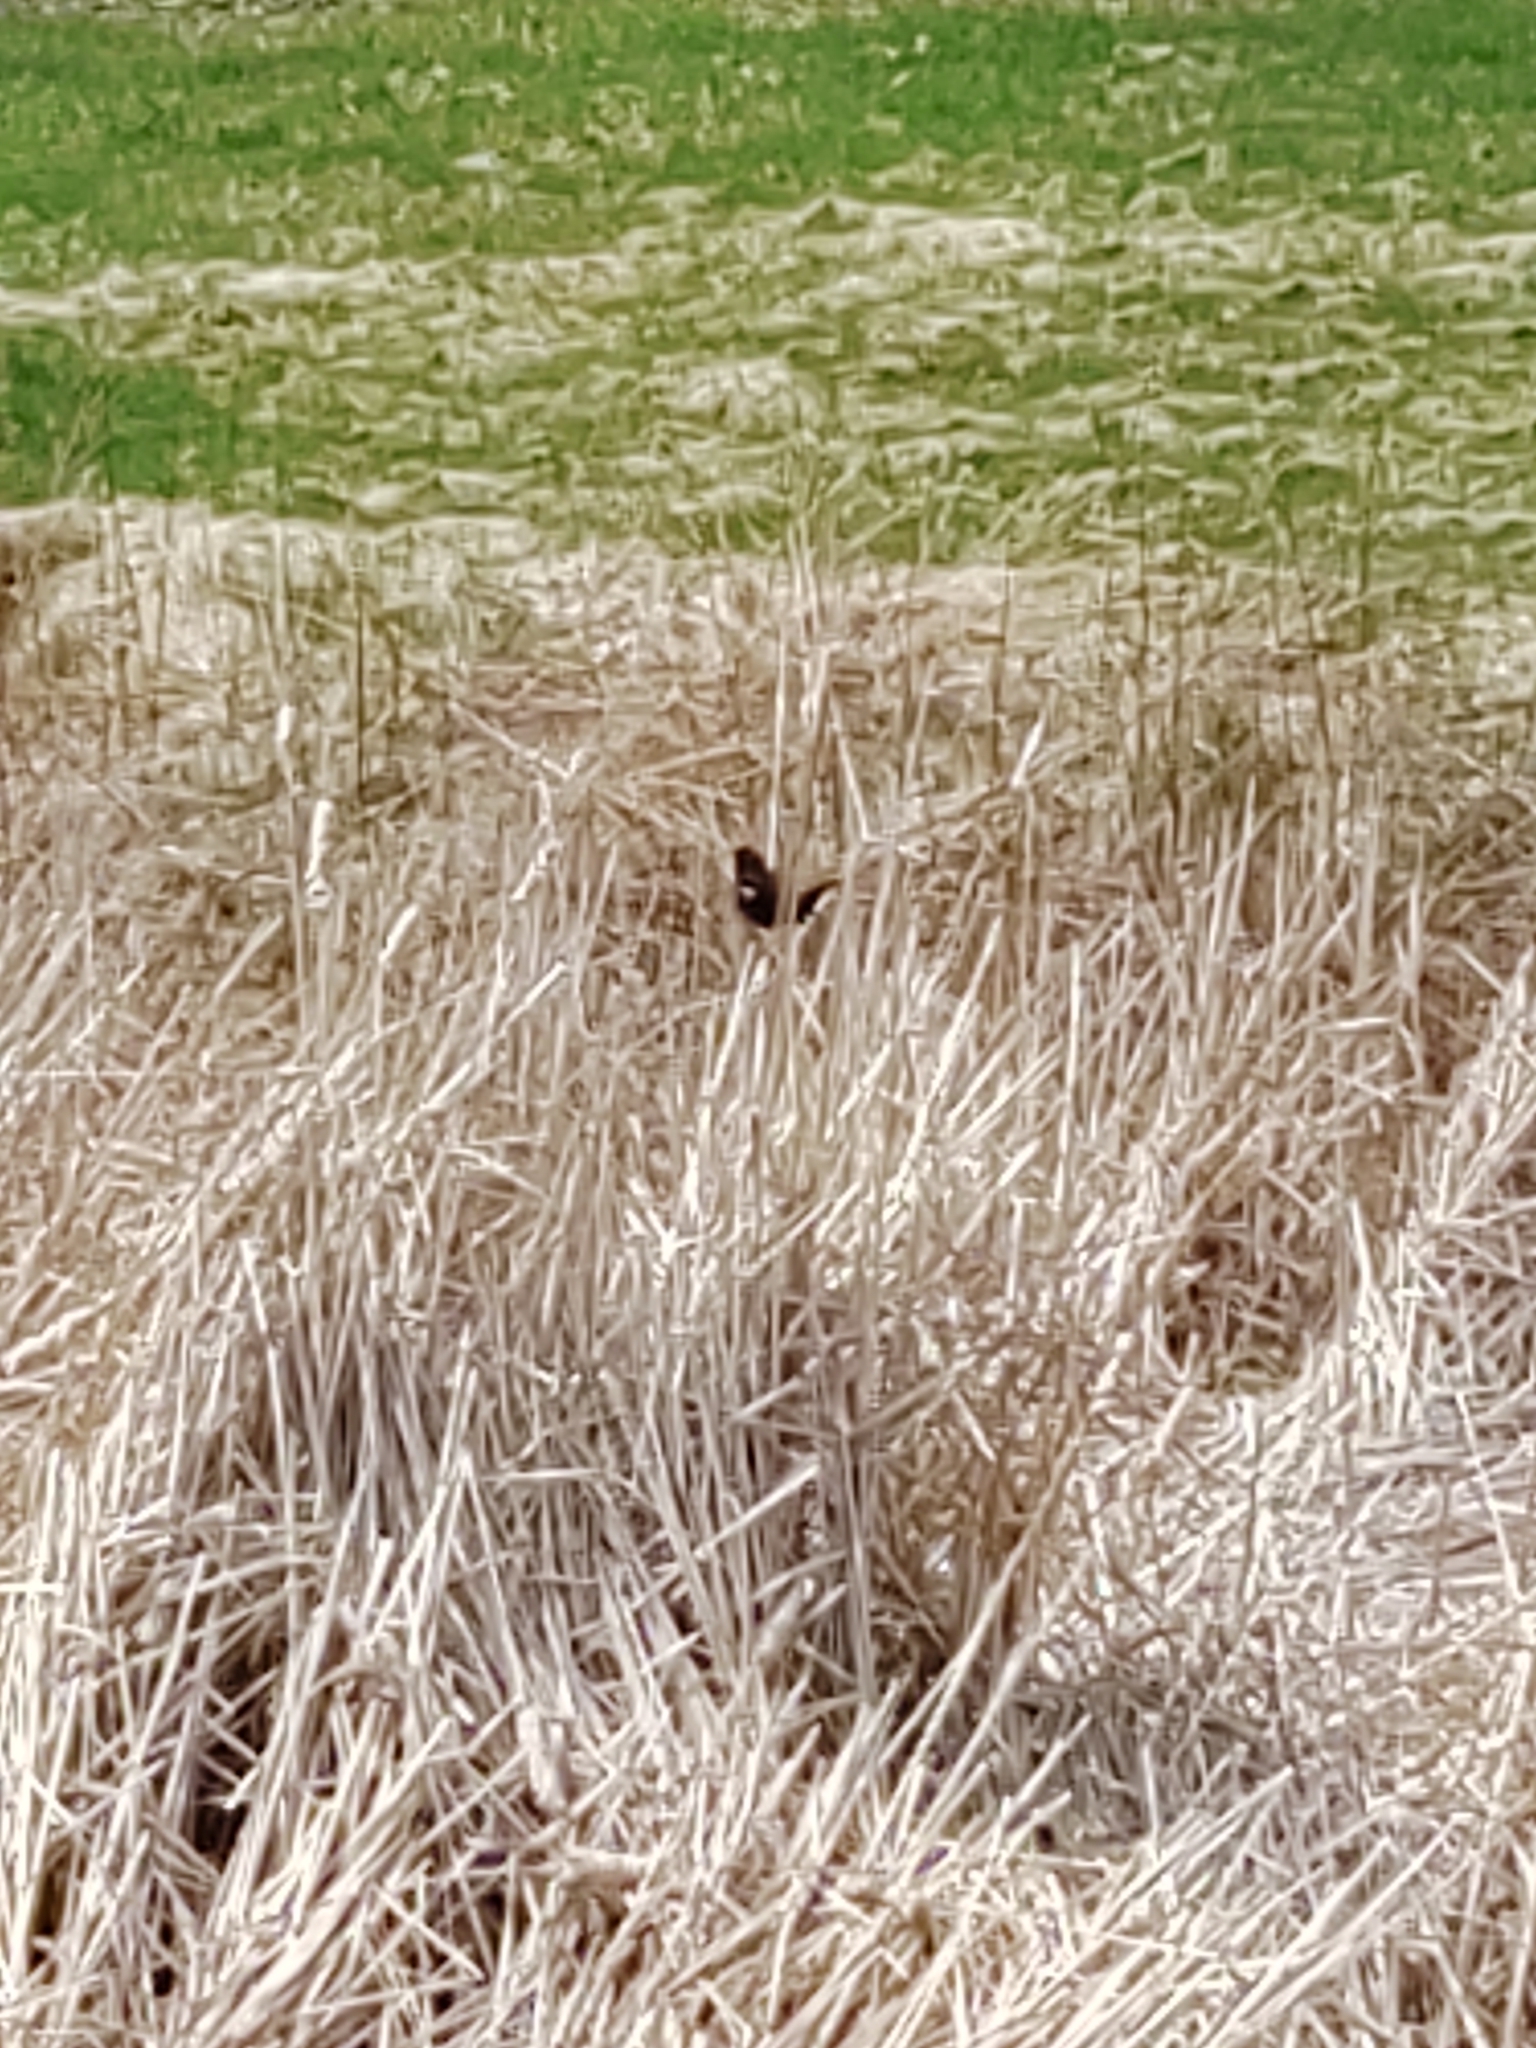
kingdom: Animalia
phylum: Chordata
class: Aves
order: Passeriformes
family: Icteridae
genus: Agelaius
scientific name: Agelaius phoeniceus
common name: Red-winged blackbird
